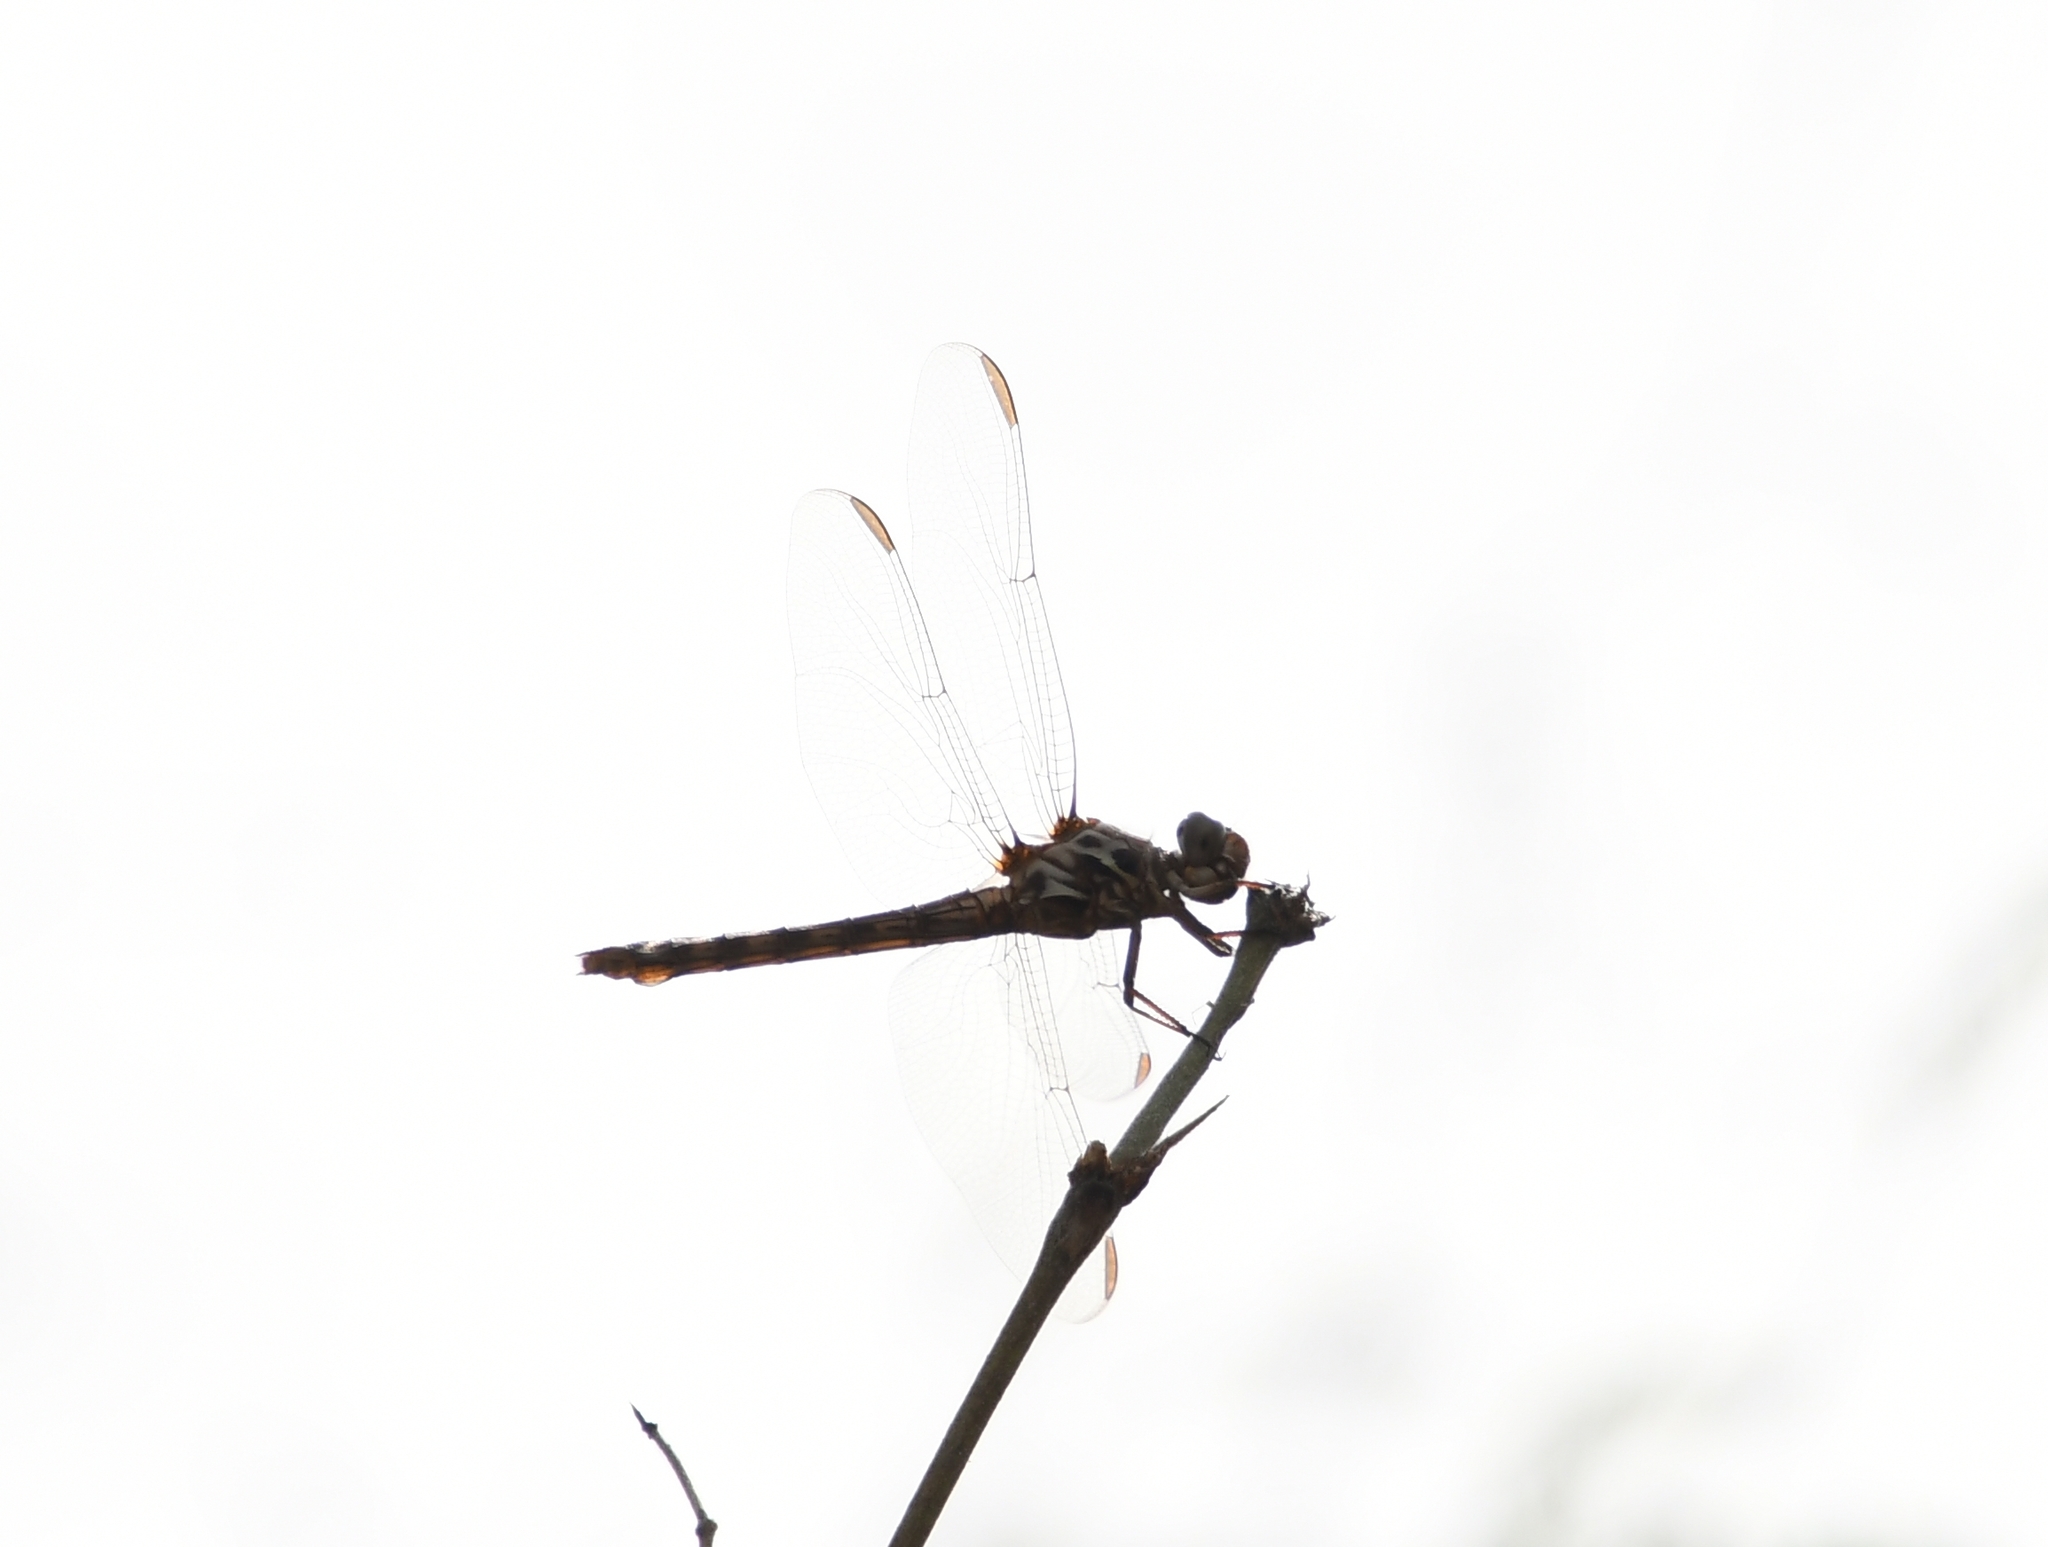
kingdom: Animalia
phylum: Arthropoda
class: Insecta
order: Odonata
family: Libellulidae
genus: Orthemis
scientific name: Orthemis ferruginea
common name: Roseate skimmer
